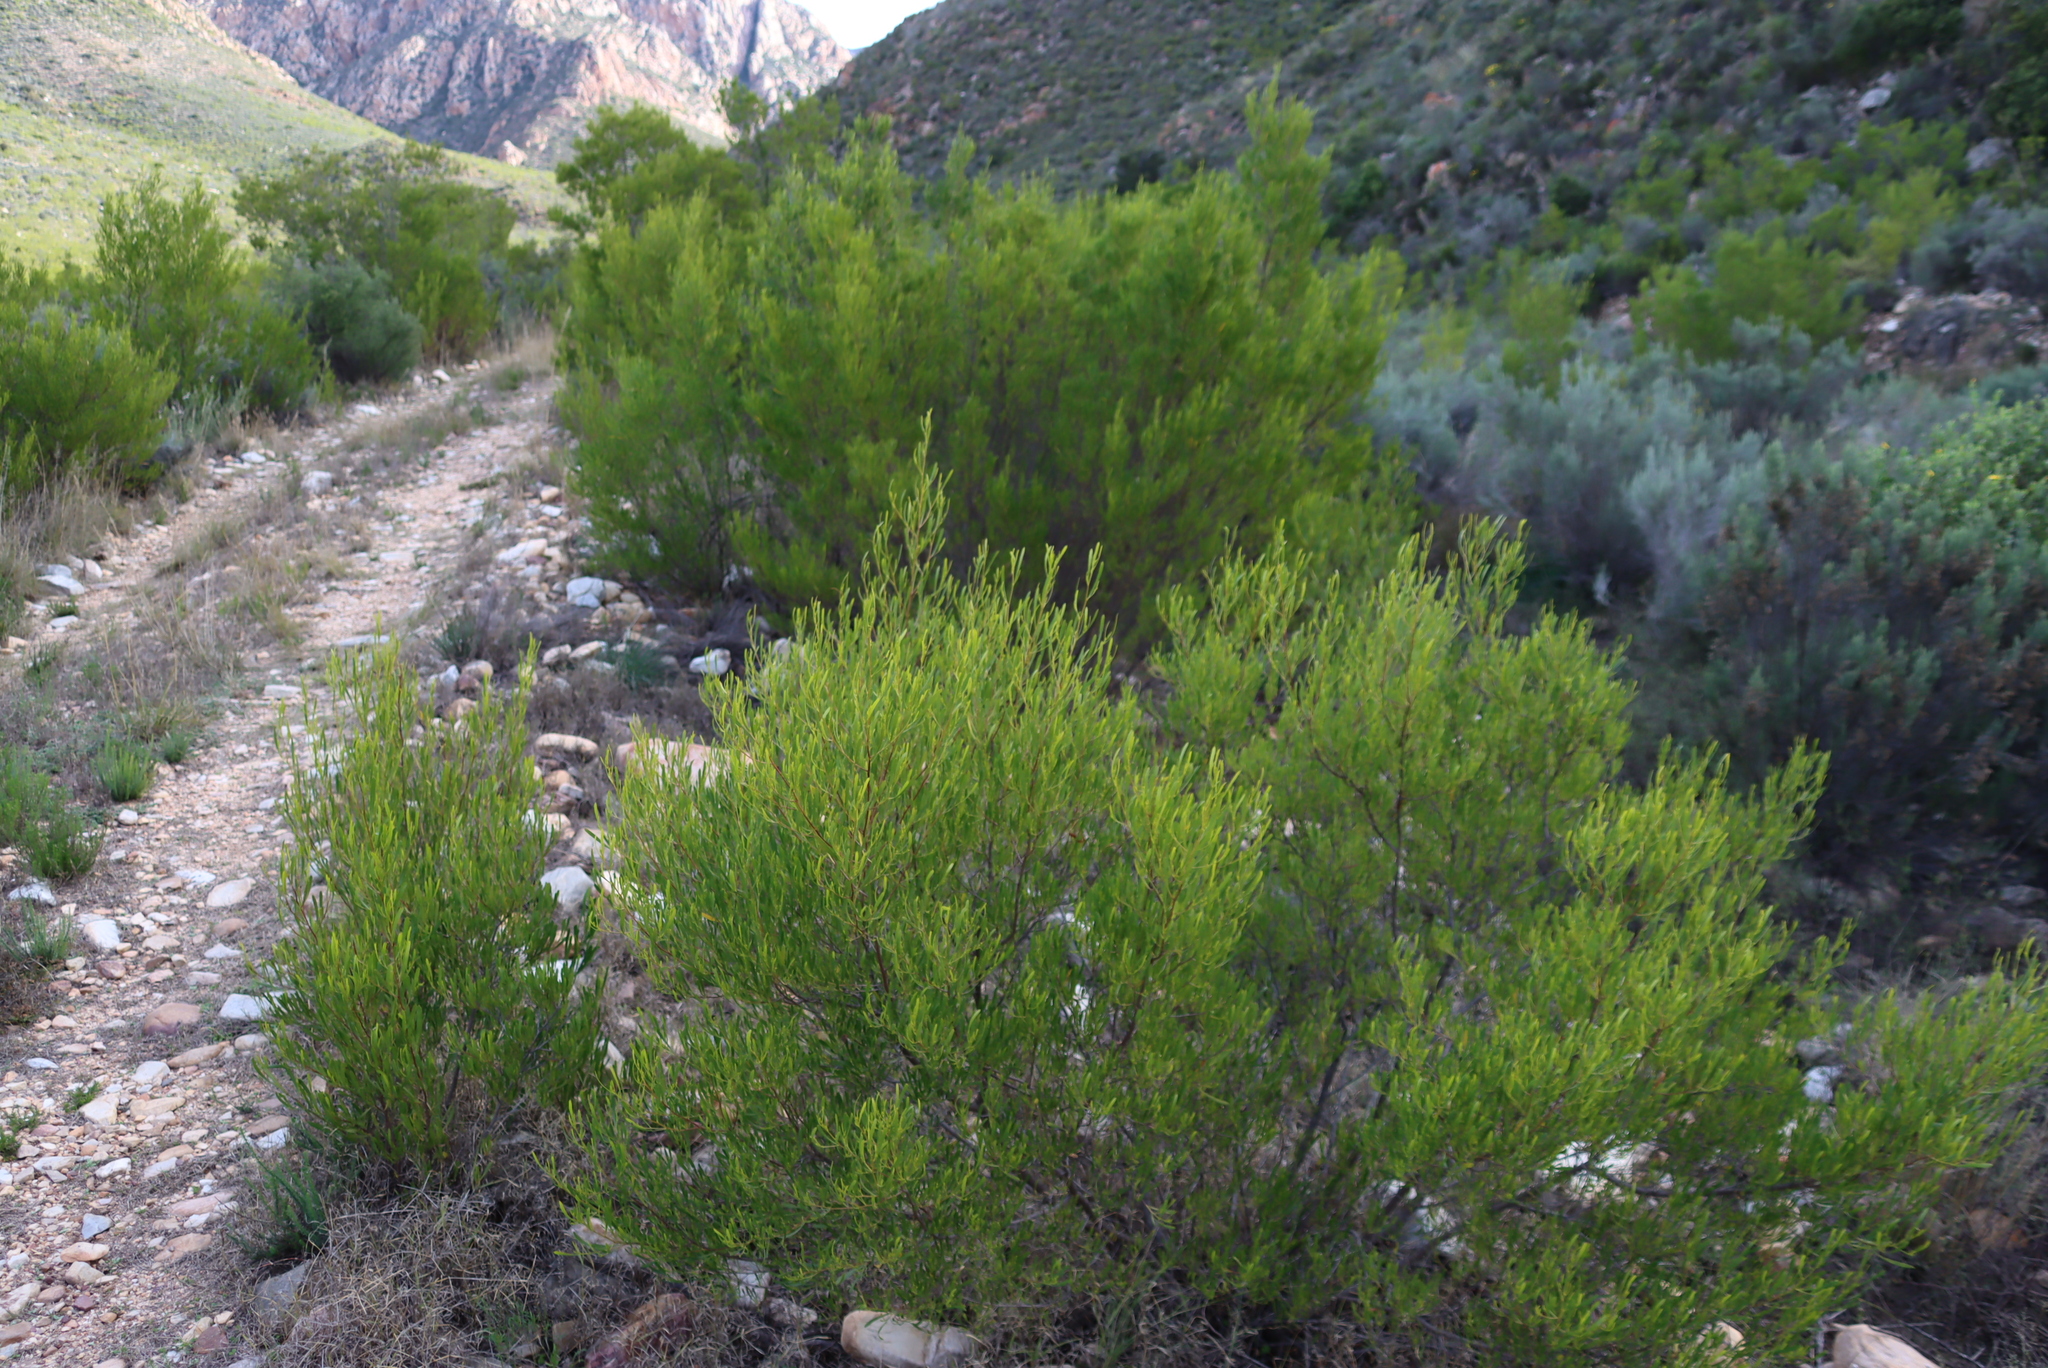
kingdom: Plantae
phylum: Tracheophyta
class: Magnoliopsida
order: Sapindales
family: Sapindaceae
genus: Dodonaea
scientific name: Dodonaea viscosa
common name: Hopbush
